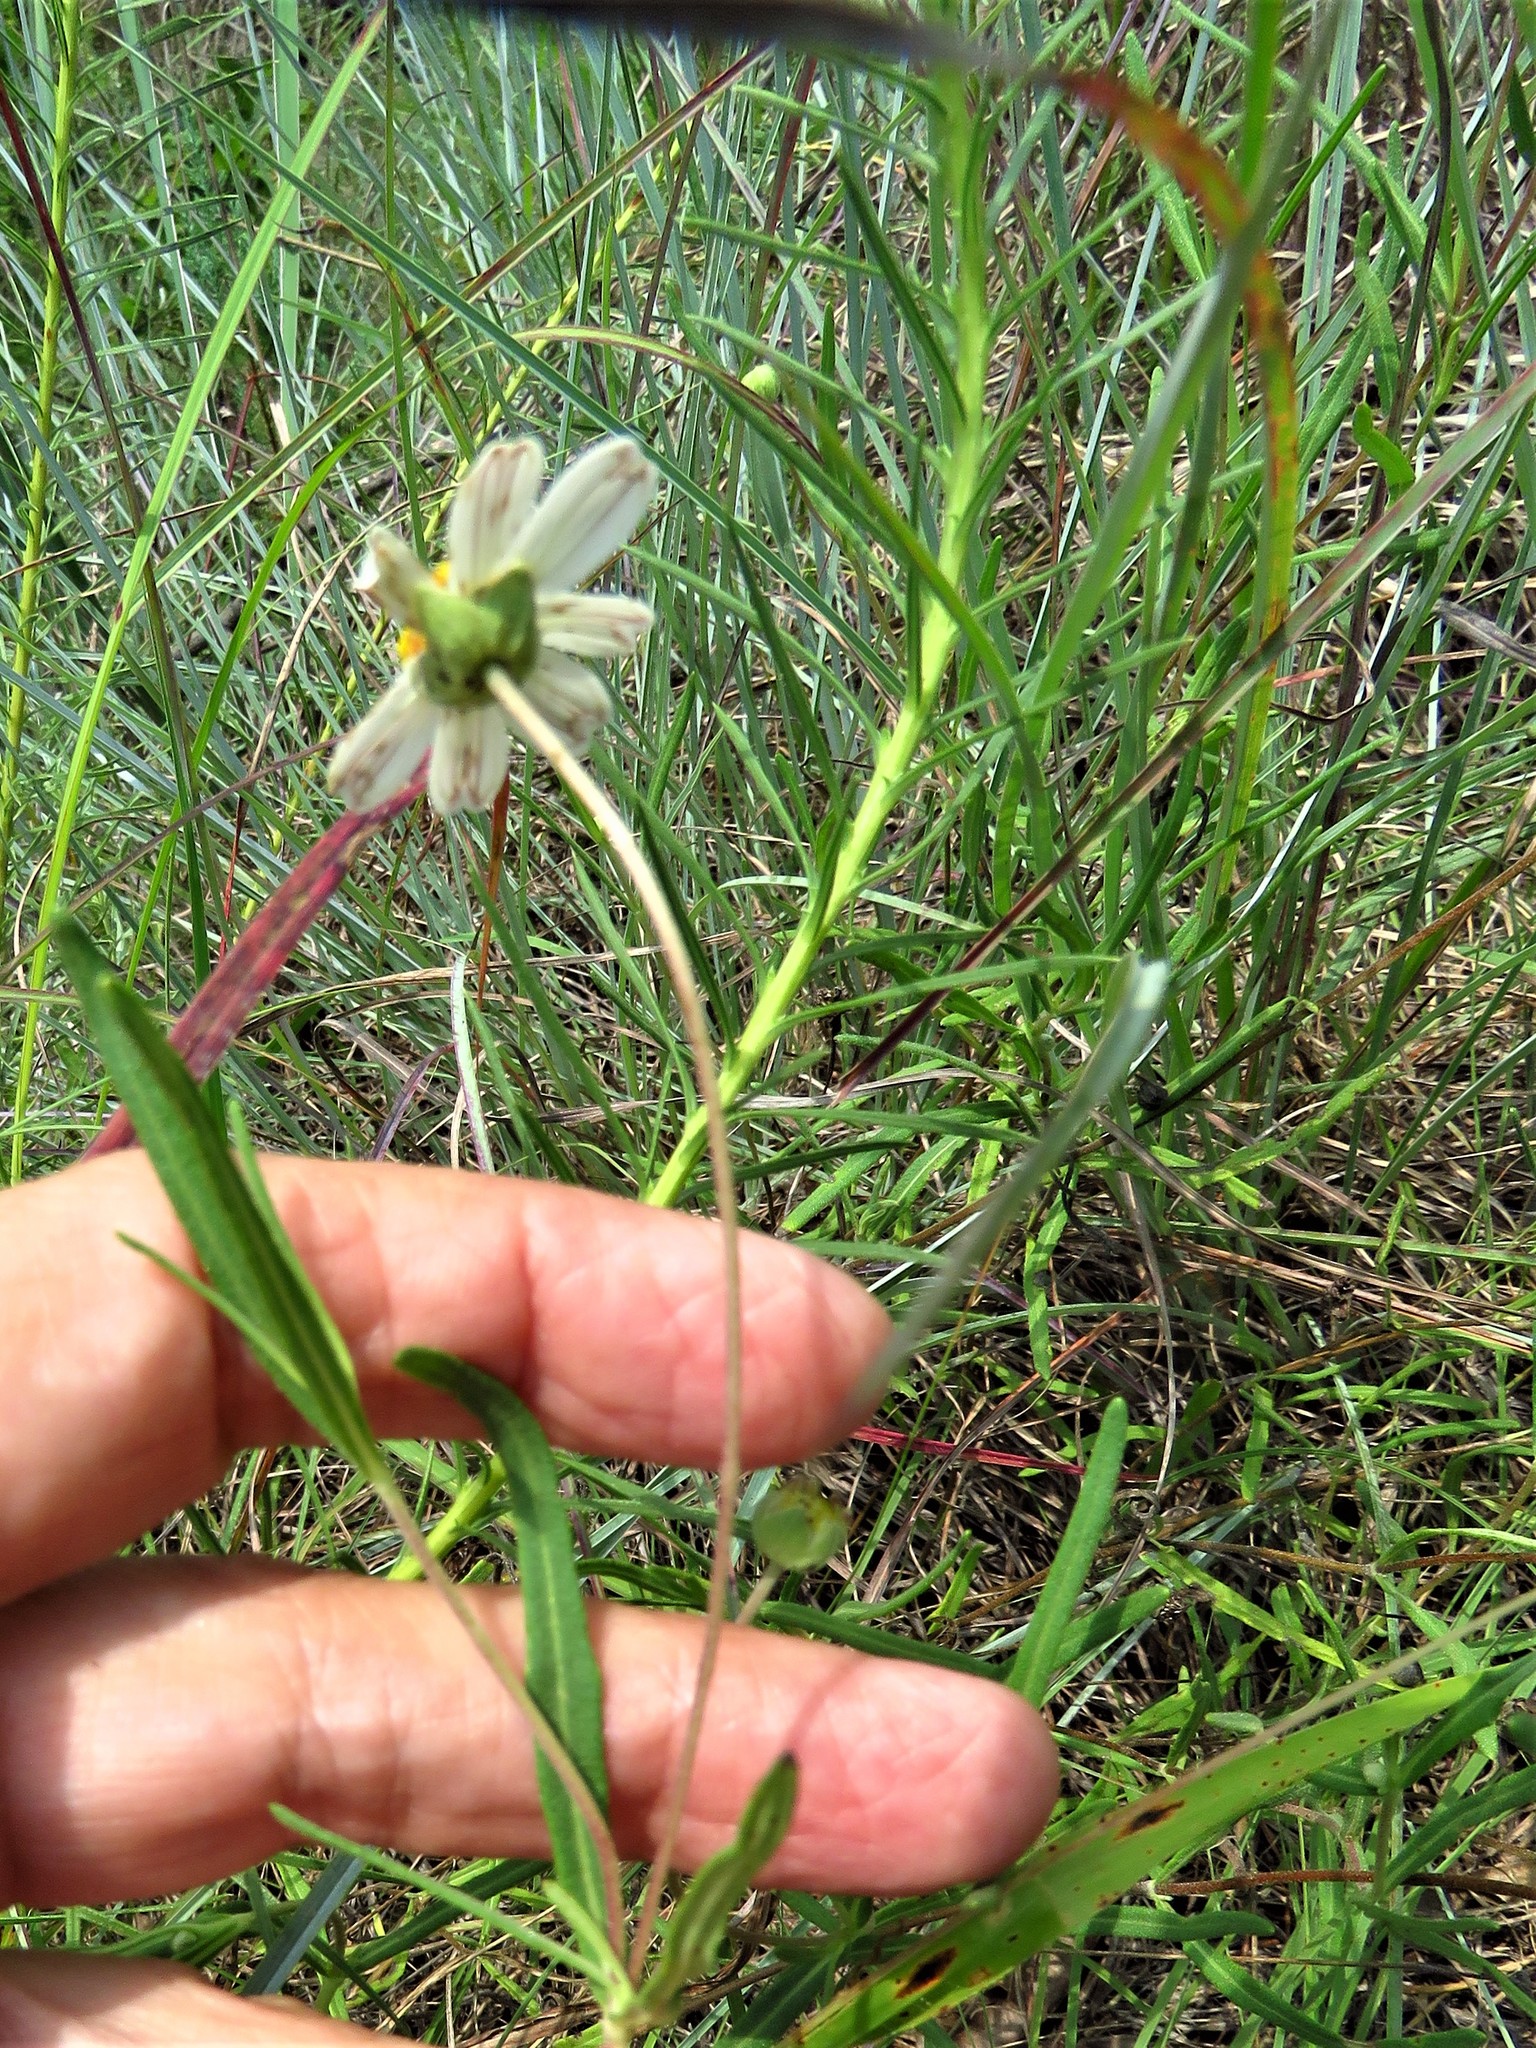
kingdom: Plantae
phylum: Tracheophyta
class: Magnoliopsida
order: Asterales
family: Asteraceae
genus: Melampodium
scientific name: Melampodium leucanthum
